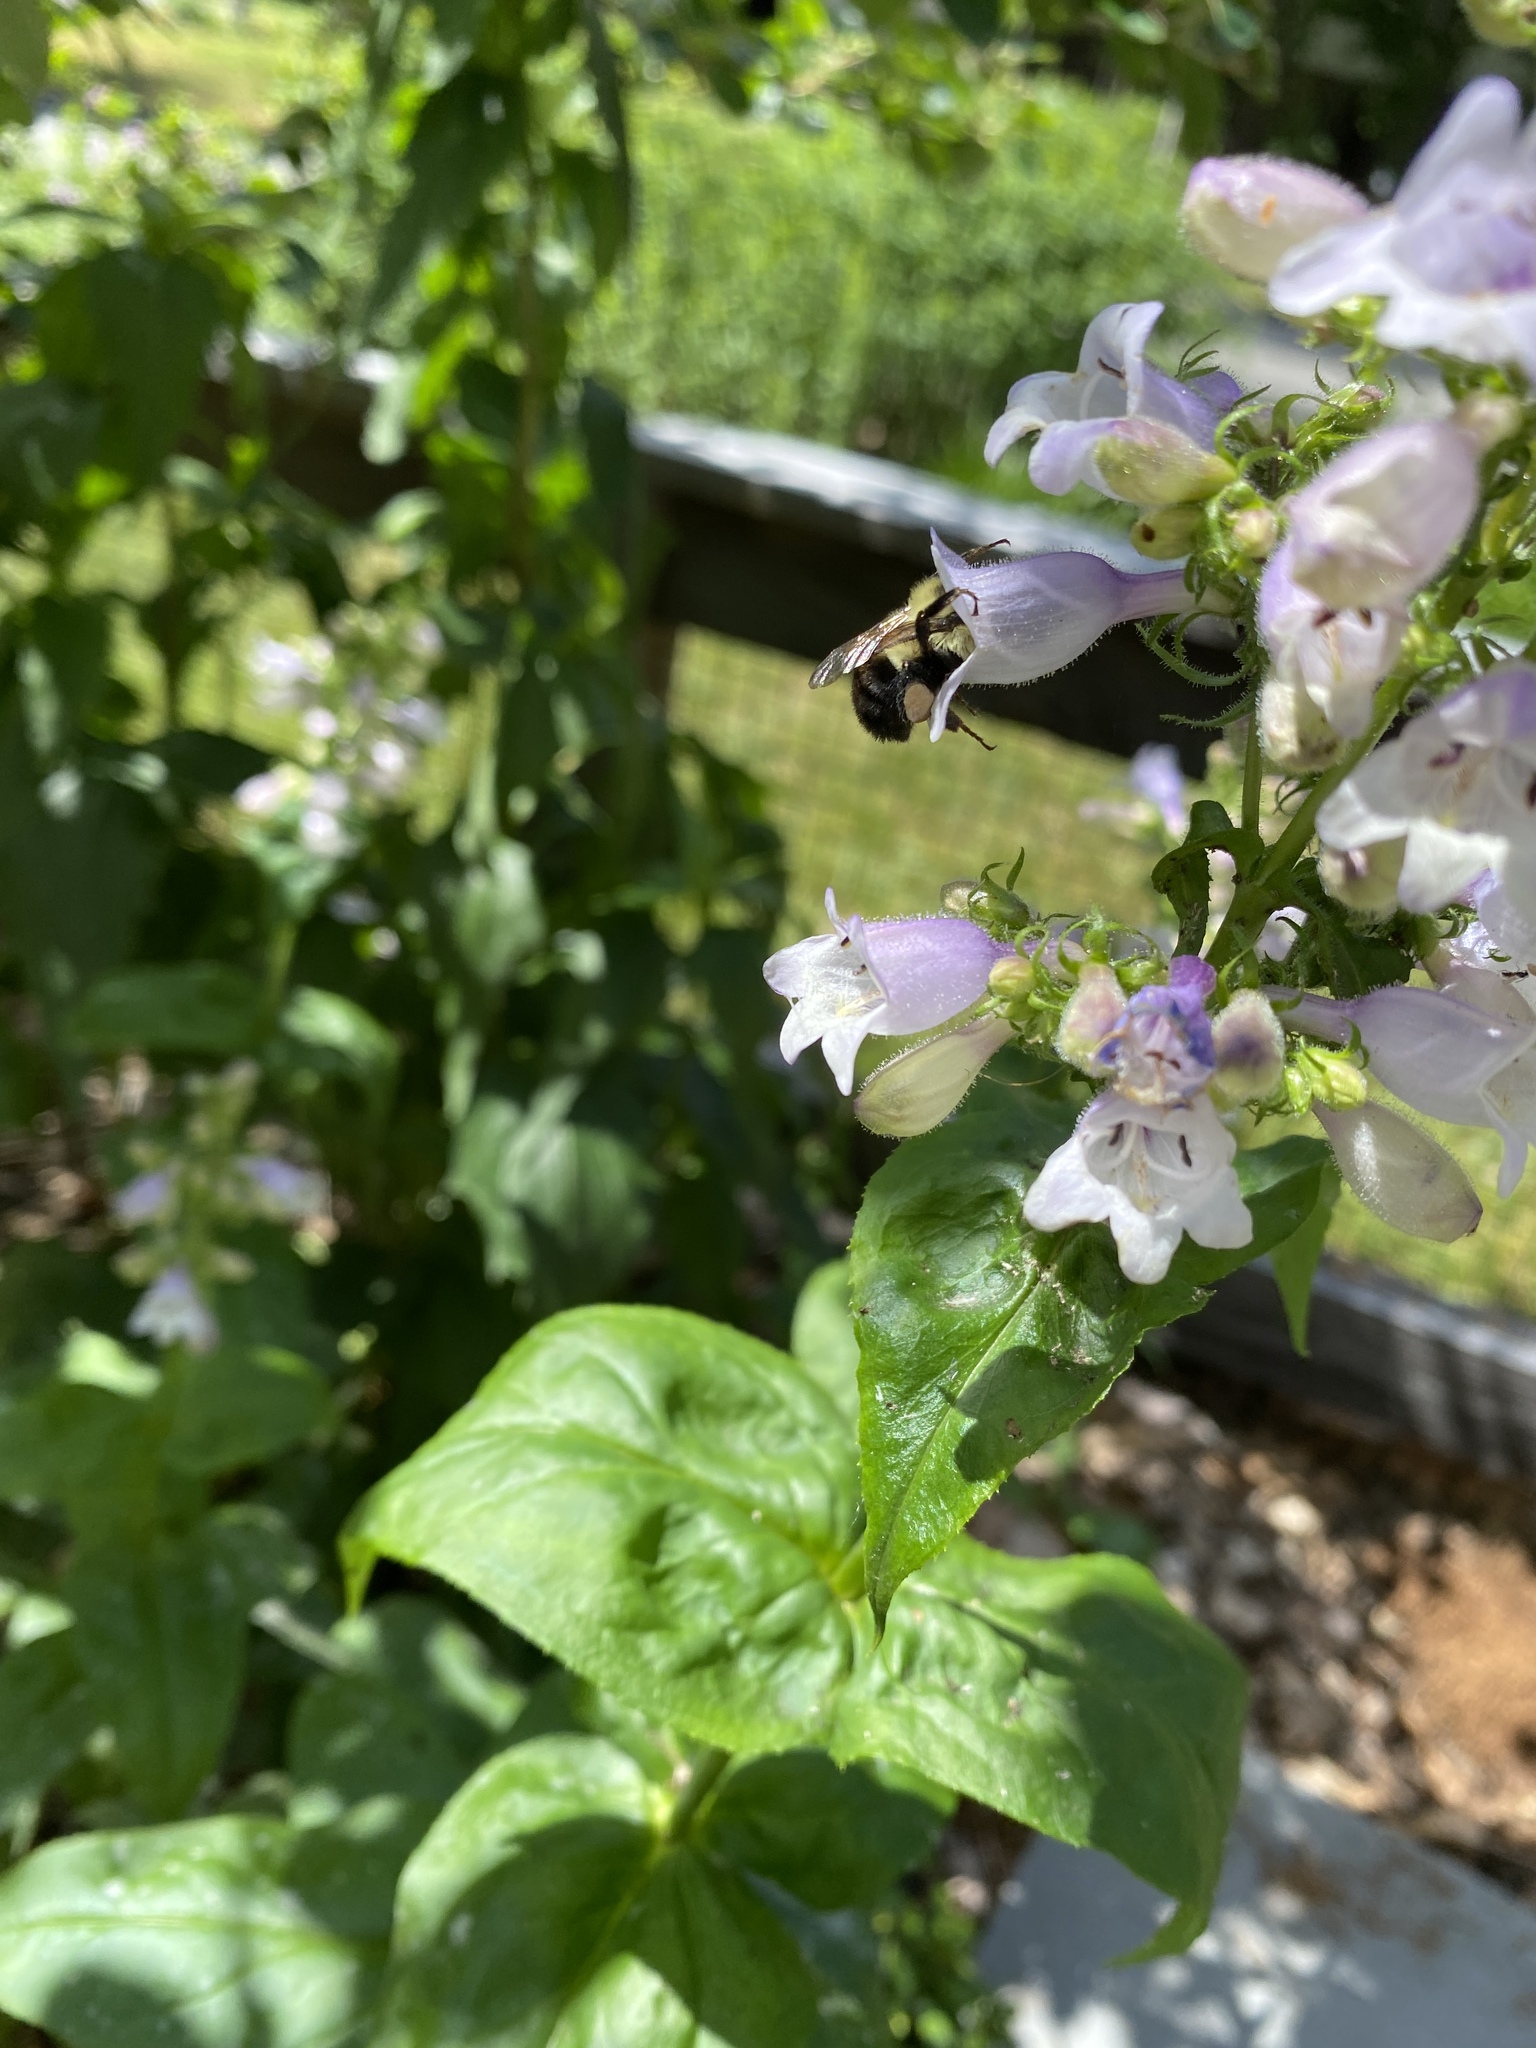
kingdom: Animalia
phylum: Arthropoda
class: Insecta
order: Hymenoptera
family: Apidae
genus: Bombus
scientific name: Bombus bimaculatus
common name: Two-spotted bumble bee
